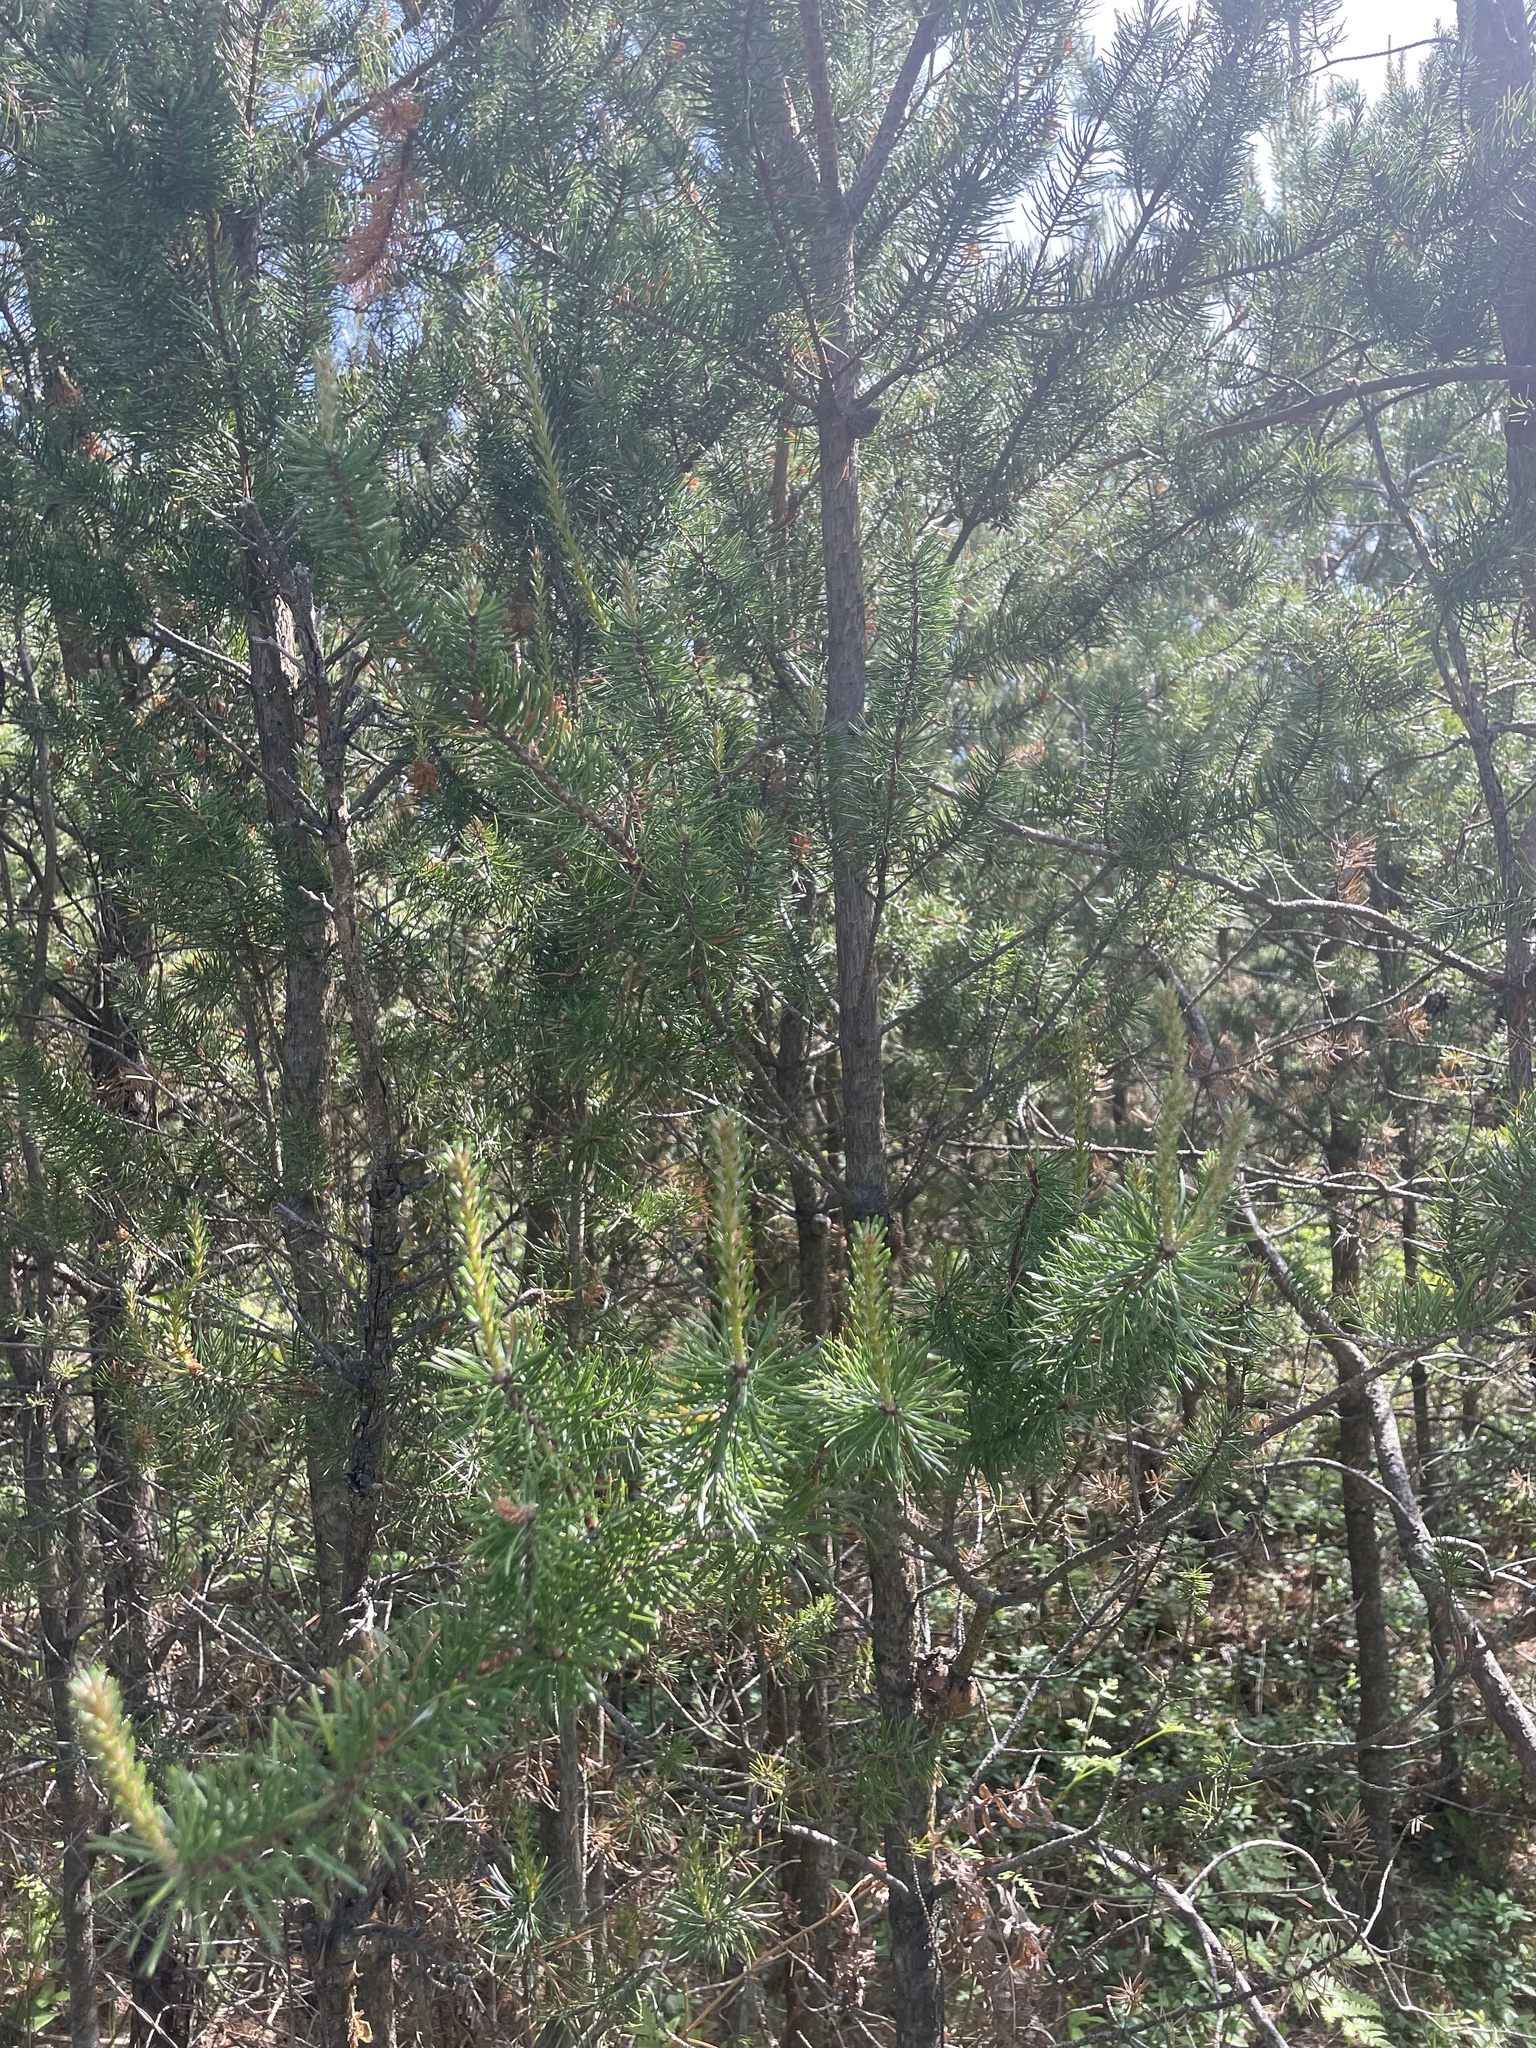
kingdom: Plantae
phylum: Tracheophyta
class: Pinopsida
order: Pinales
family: Pinaceae
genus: Pinus
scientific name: Pinus banksiana
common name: Jack pine
